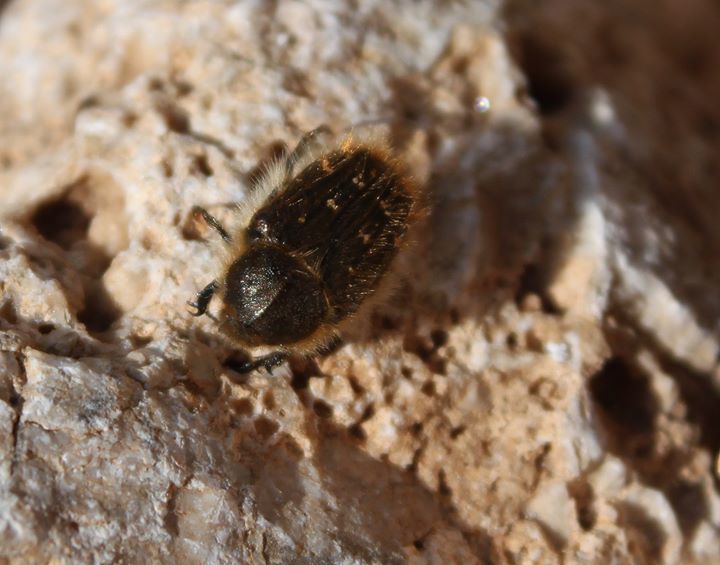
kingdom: Animalia
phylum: Arthropoda
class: Insecta
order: Coleoptera
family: Scarabaeidae
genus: Tropinota
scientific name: Tropinota hirta
